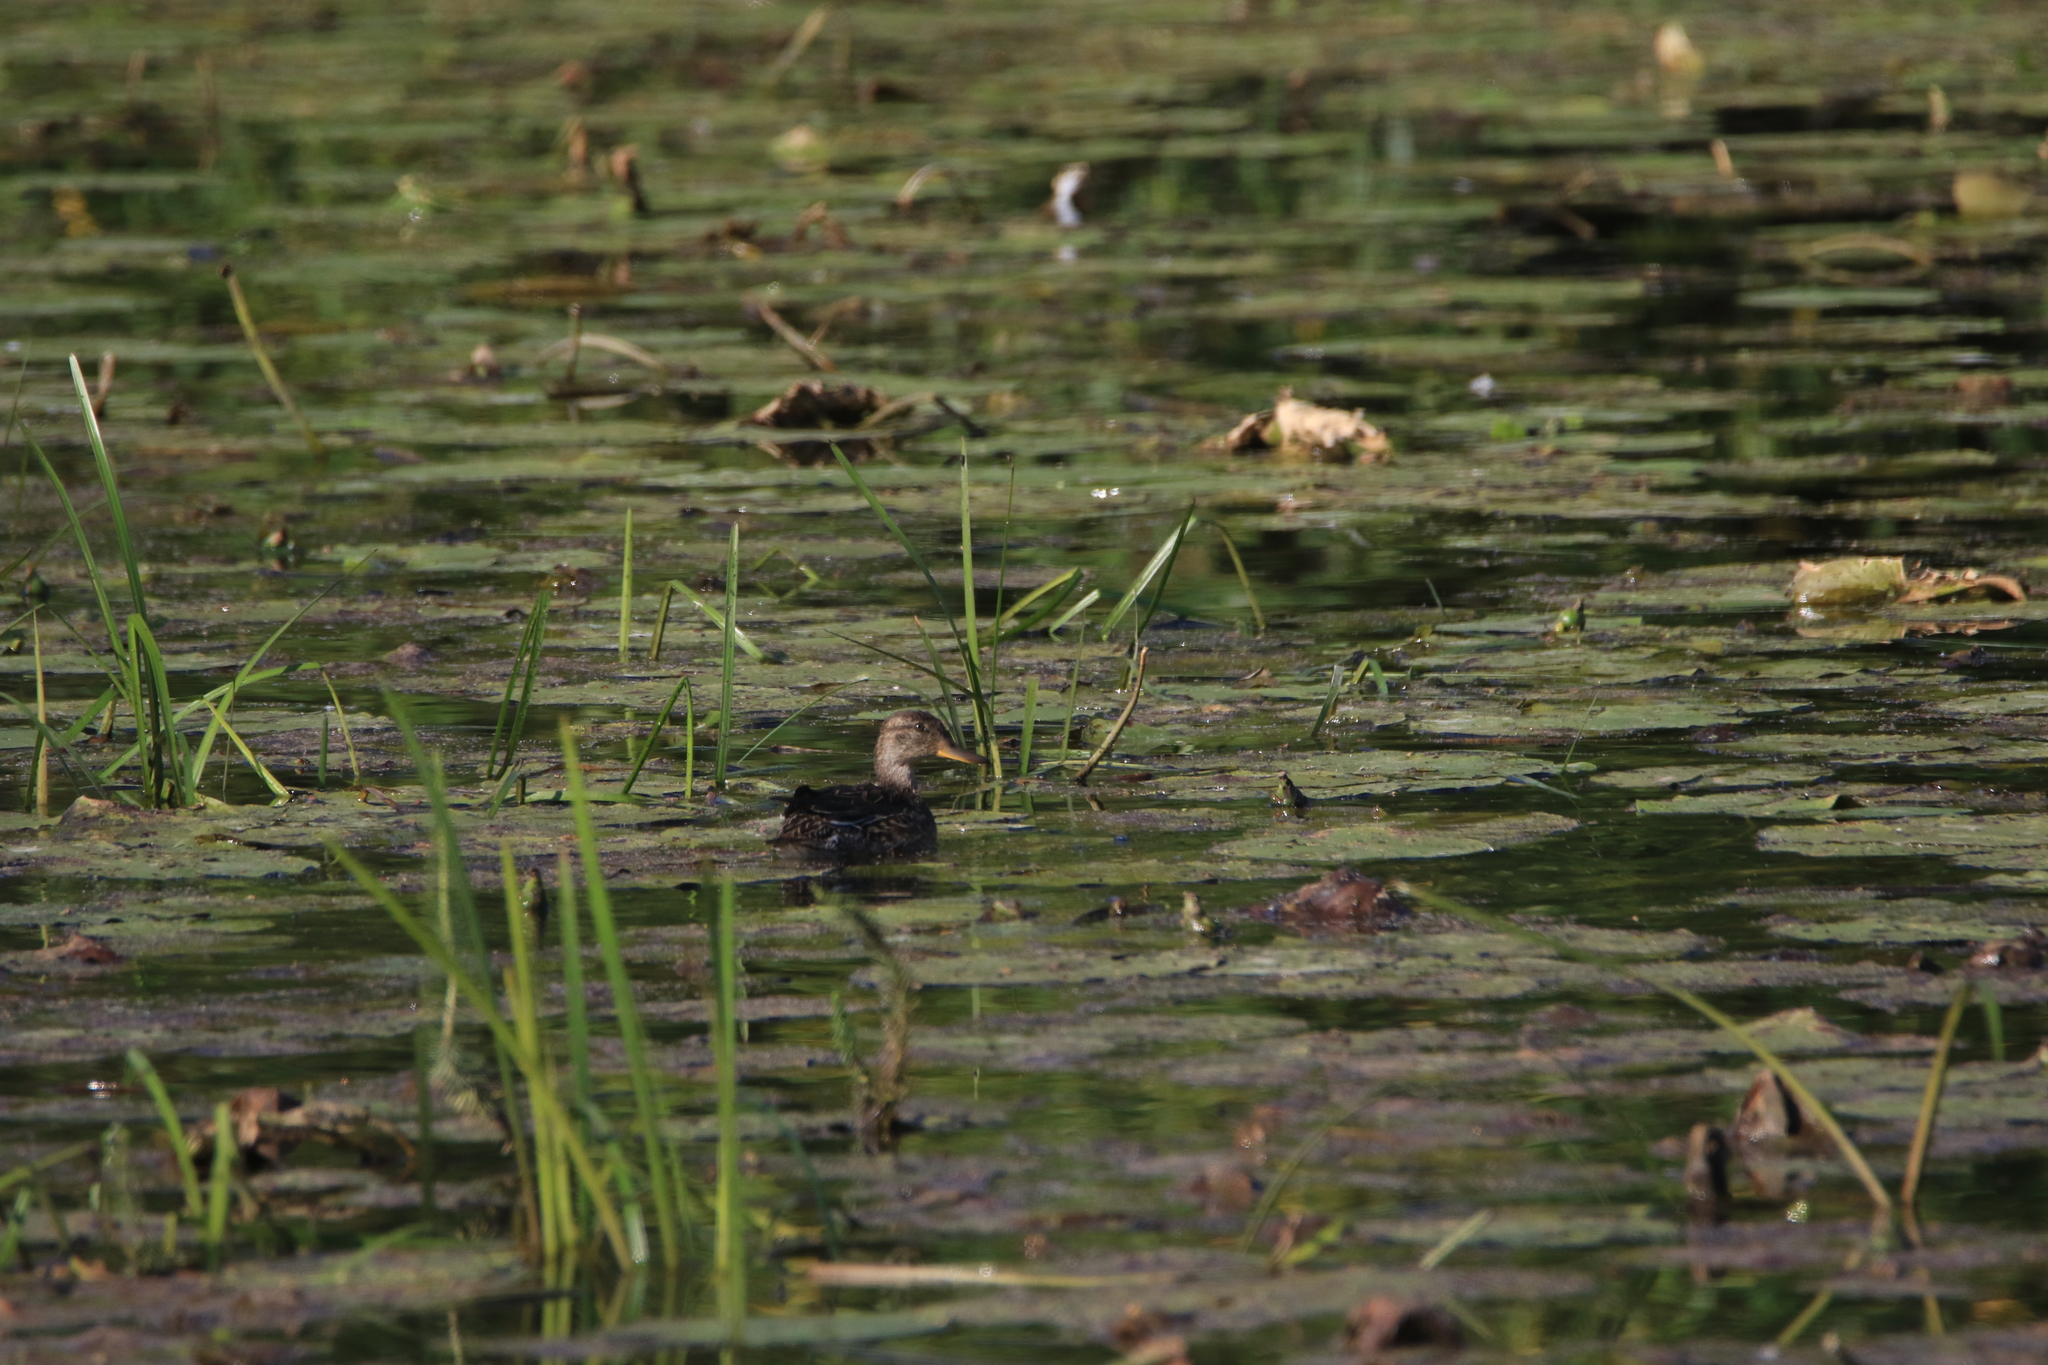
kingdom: Animalia
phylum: Chordata
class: Aves
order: Anseriformes
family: Anatidae
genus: Anas
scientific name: Anas crecca
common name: Eurasian teal
